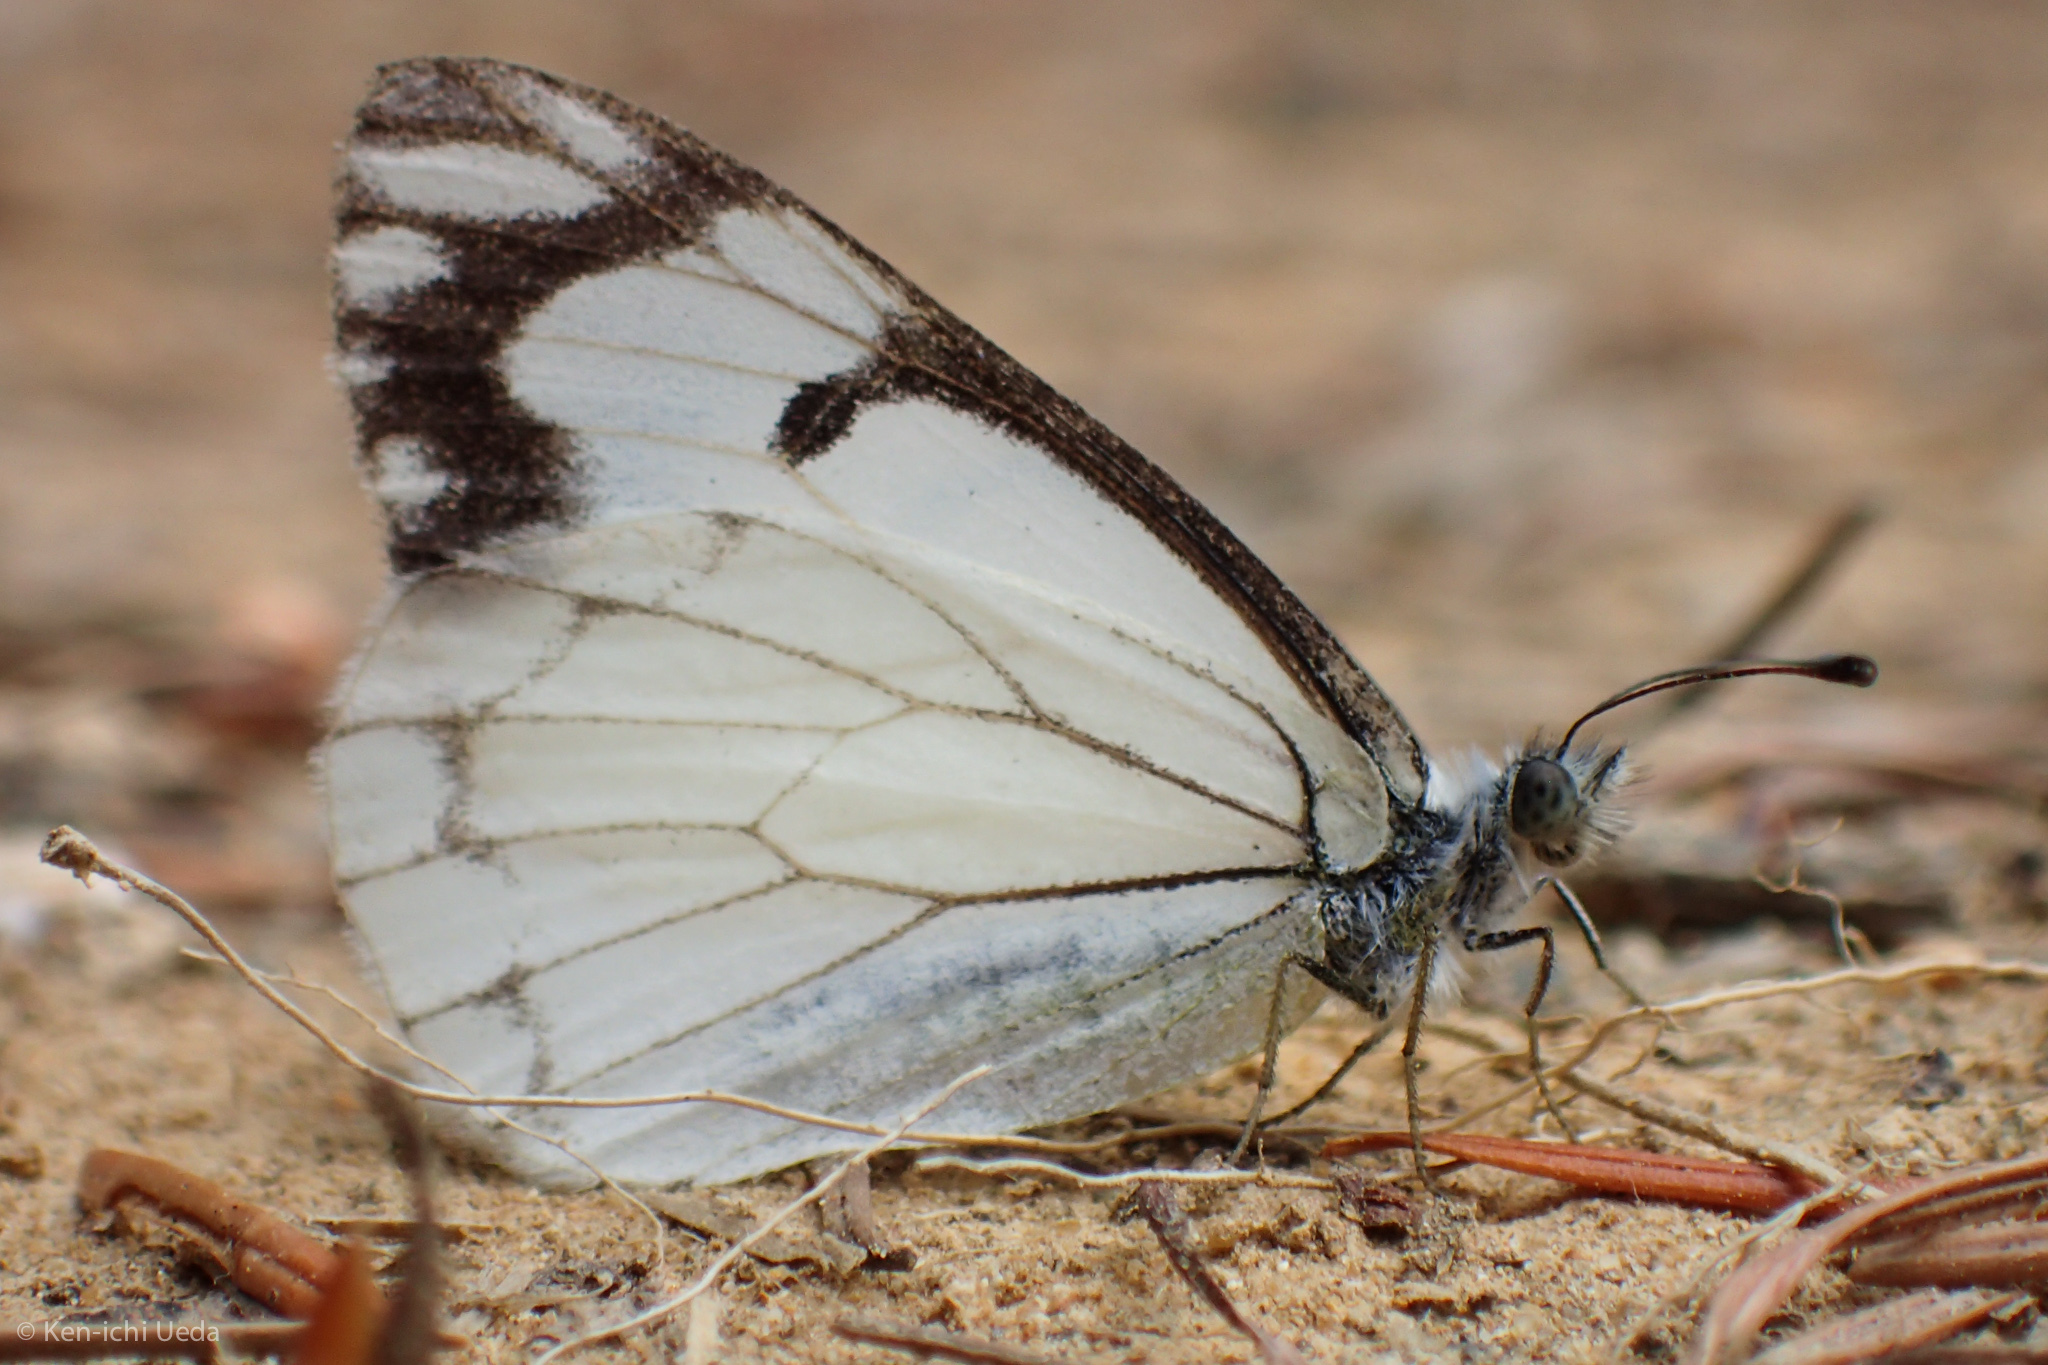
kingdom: Animalia
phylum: Arthropoda
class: Insecta
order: Lepidoptera
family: Pieridae
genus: Neophasia
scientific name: Neophasia menapia
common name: Pine white
